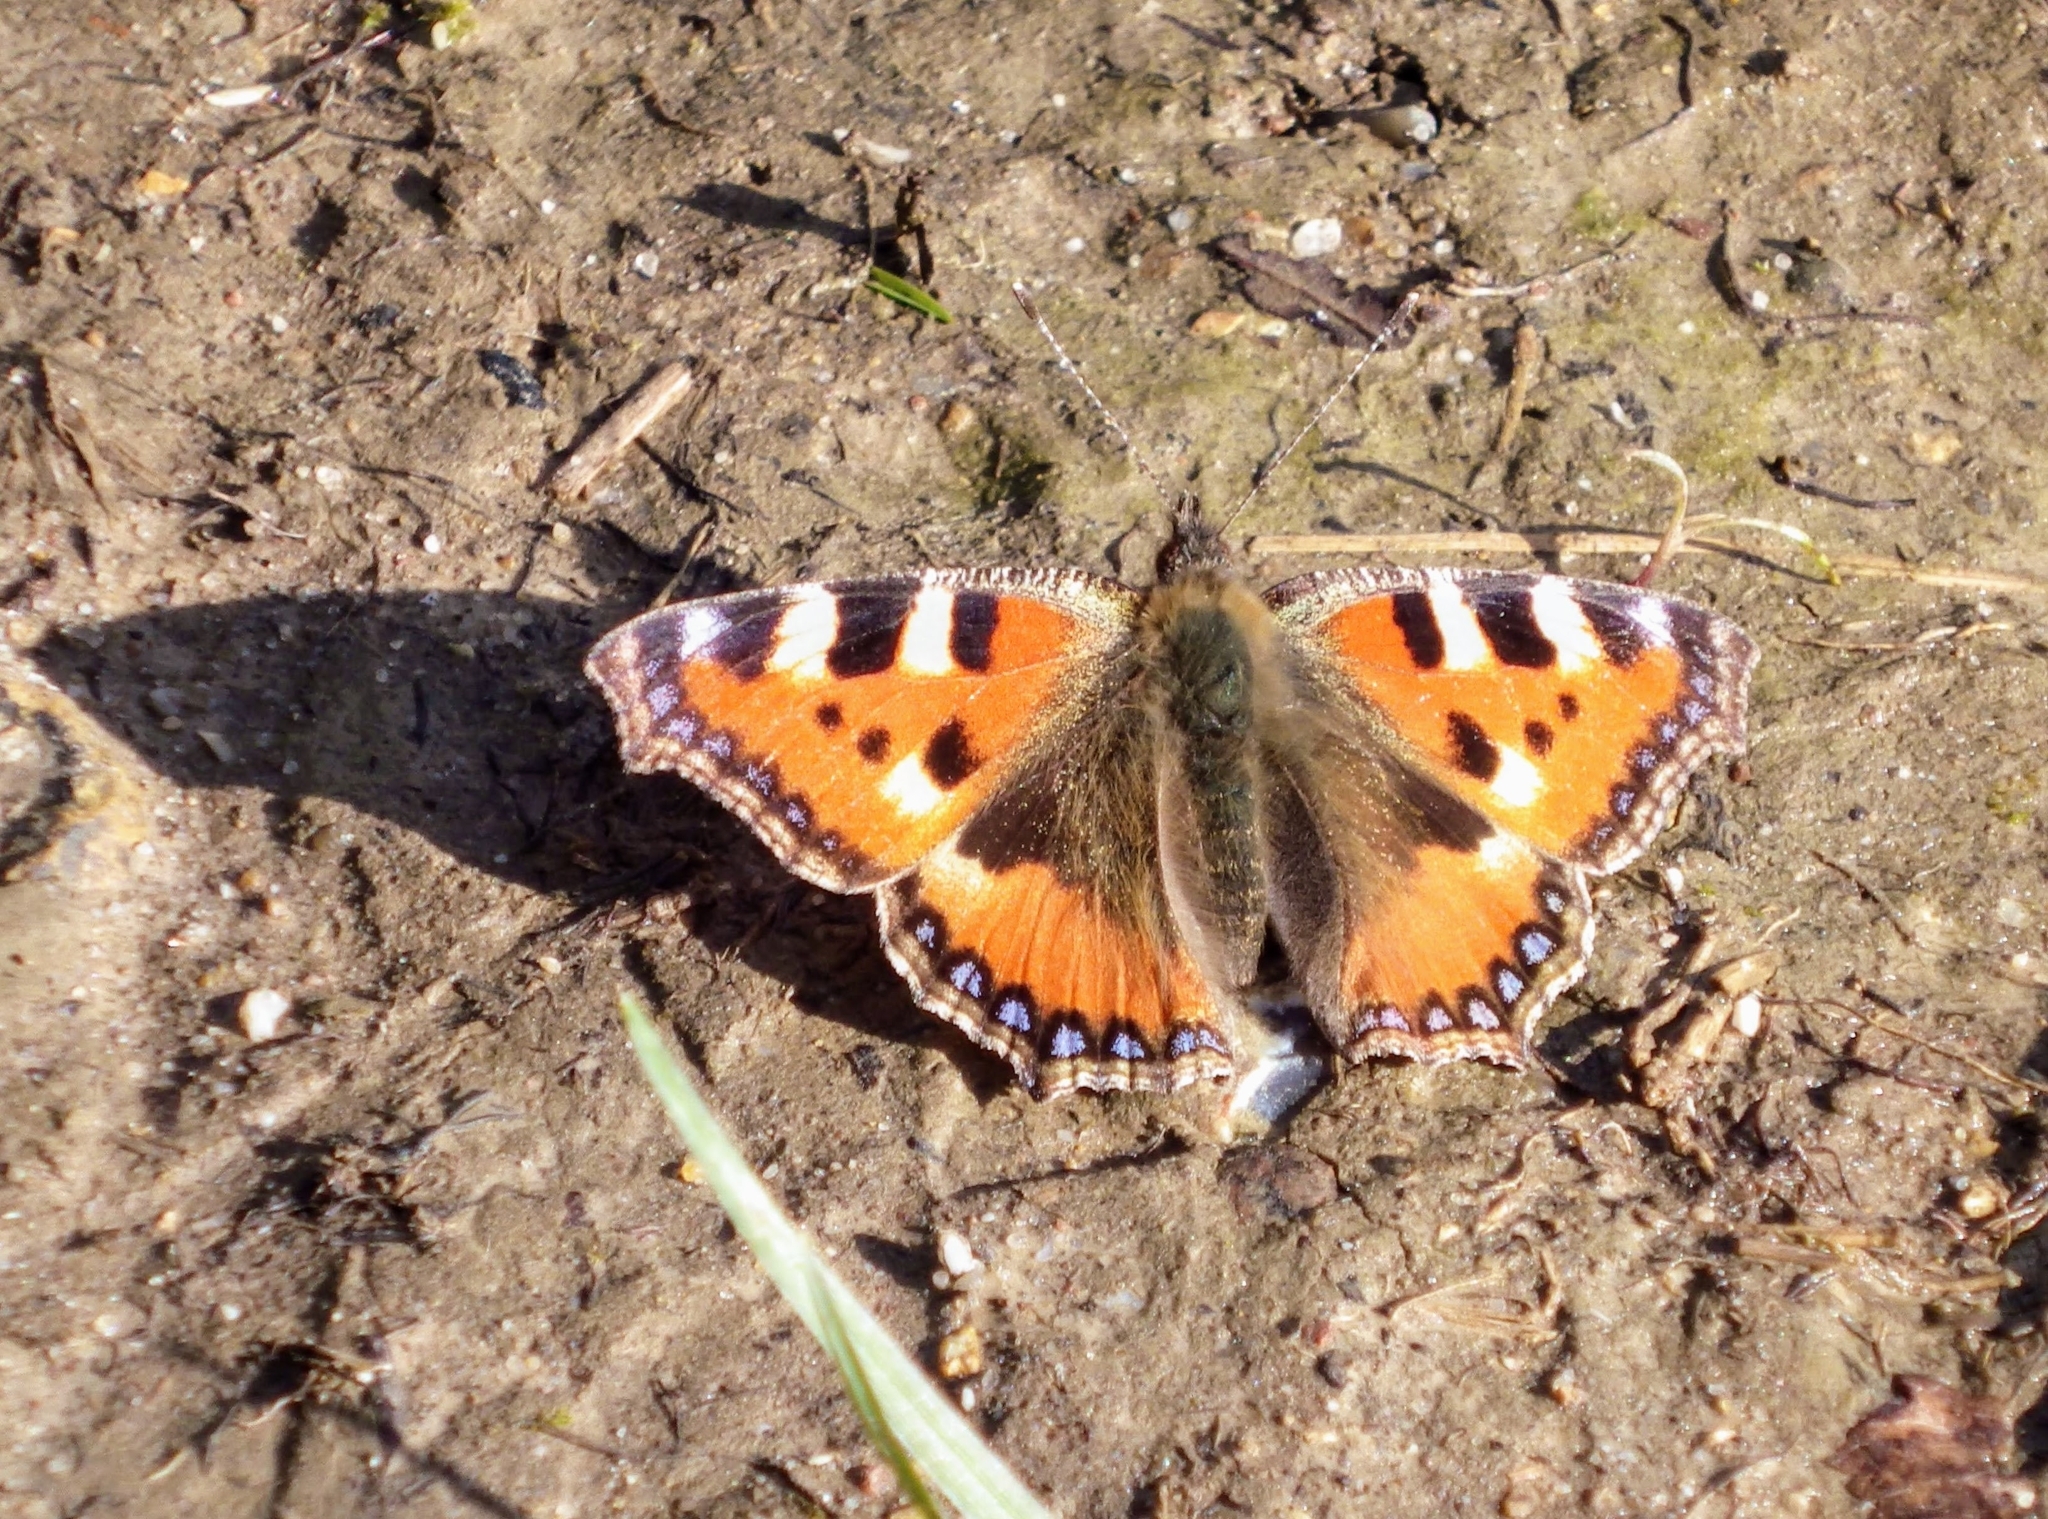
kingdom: Animalia
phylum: Arthropoda
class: Insecta
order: Lepidoptera
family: Nymphalidae
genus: Aglais
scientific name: Aglais urticae
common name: Small tortoiseshell
